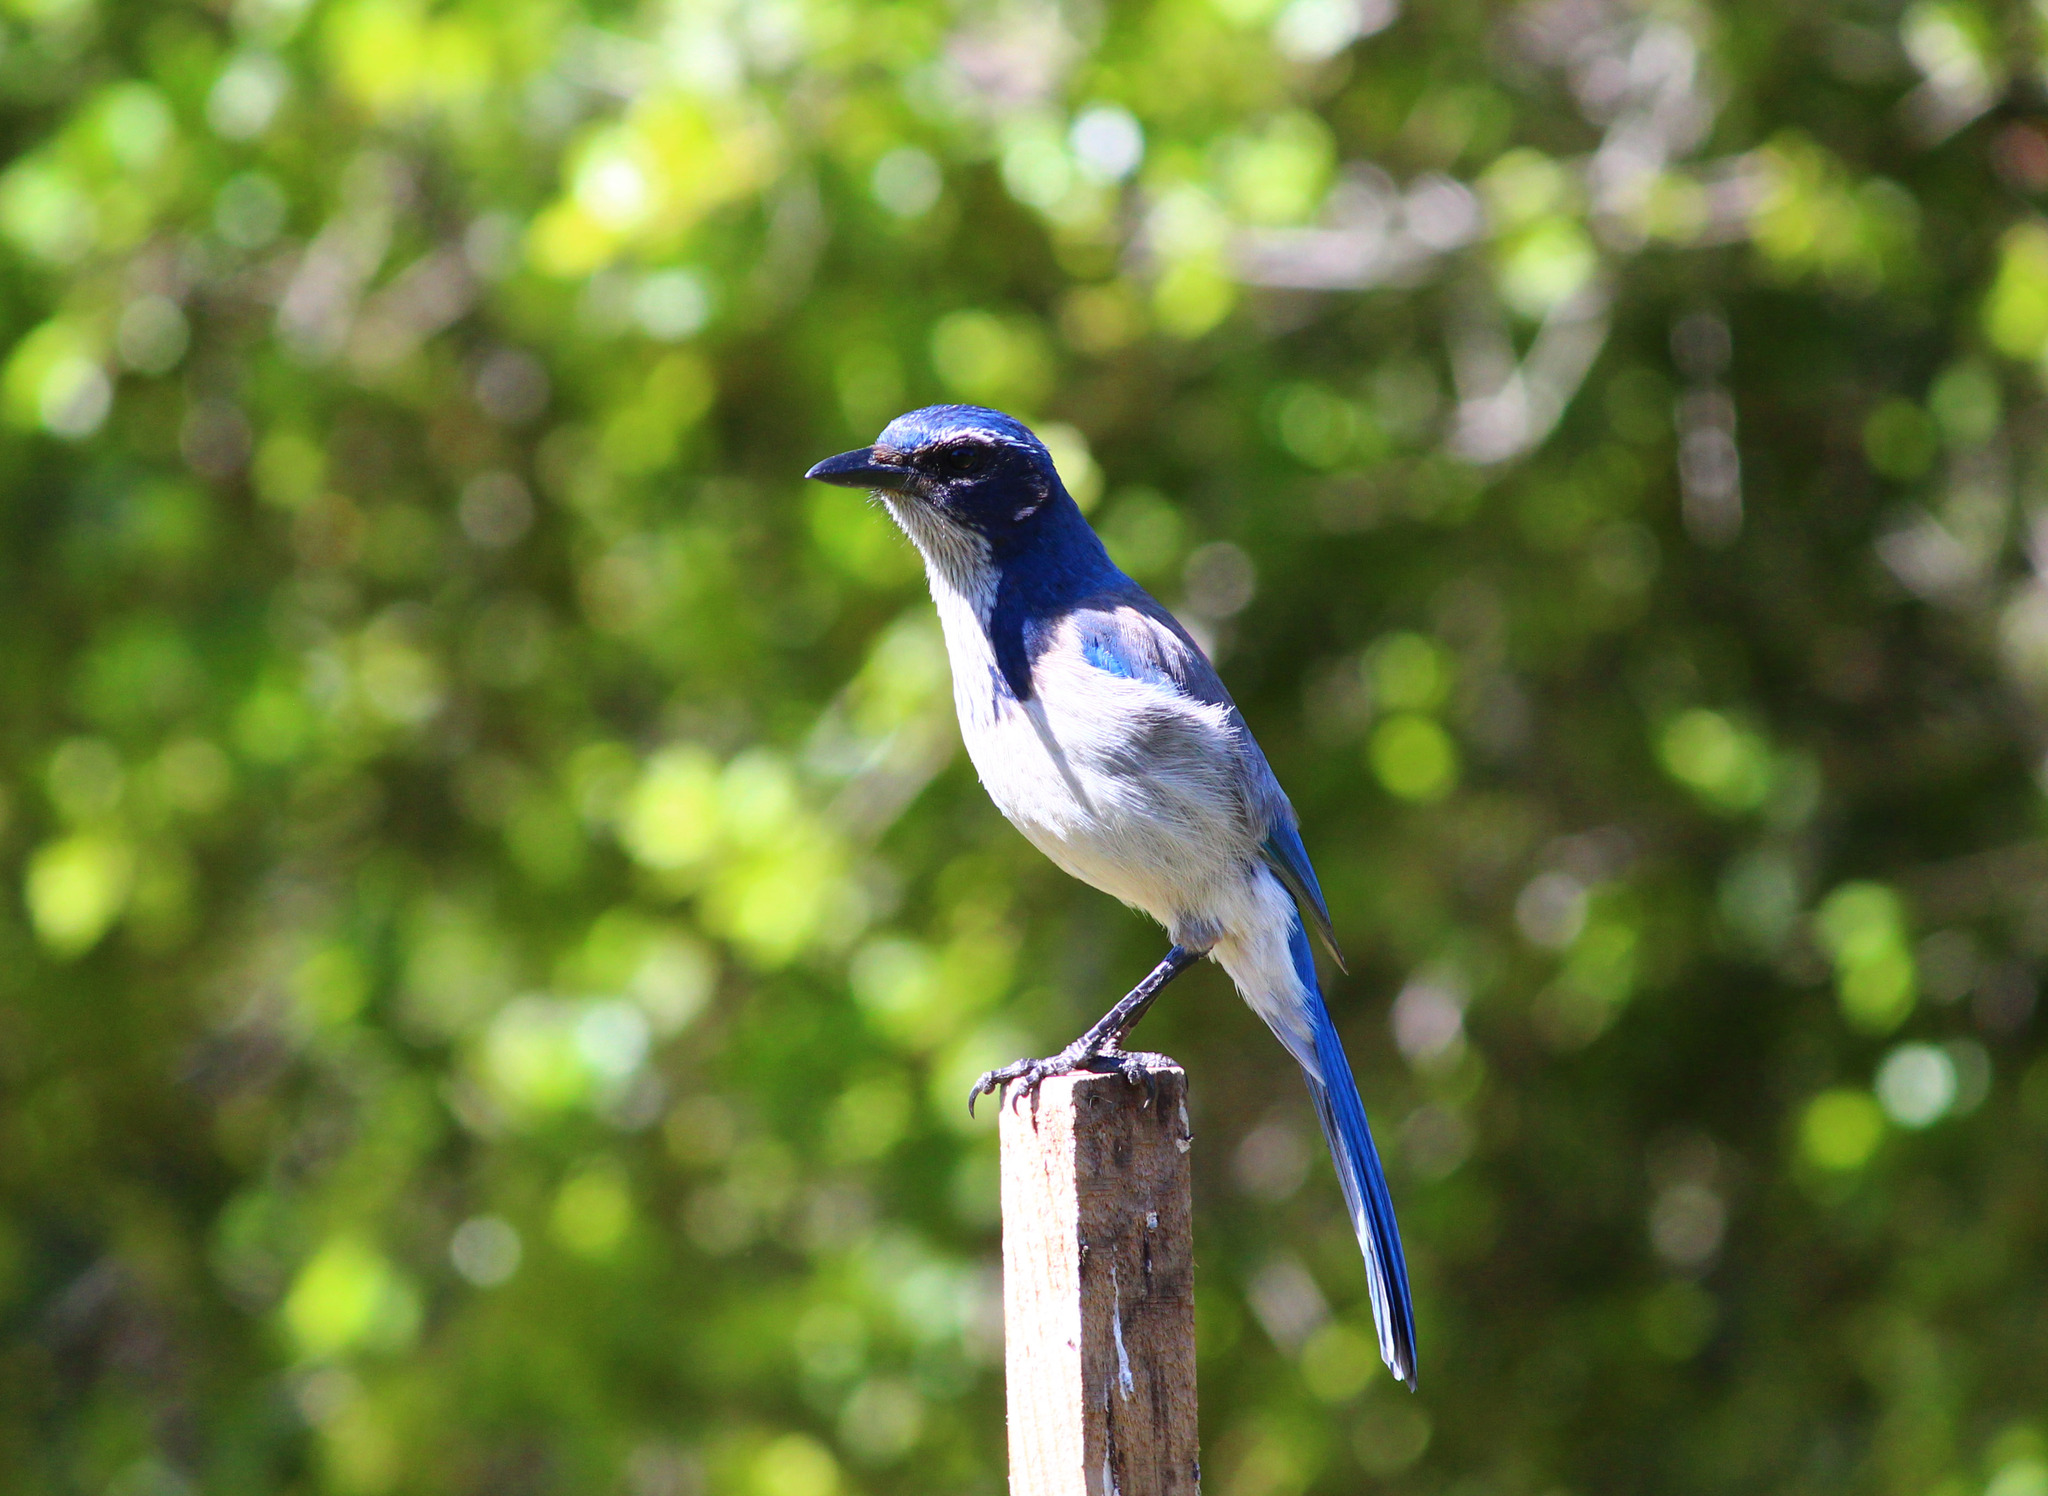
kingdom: Animalia
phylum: Chordata
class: Aves
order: Passeriformes
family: Corvidae
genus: Aphelocoma
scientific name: Aphelocoma californica
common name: California scrub-jay
